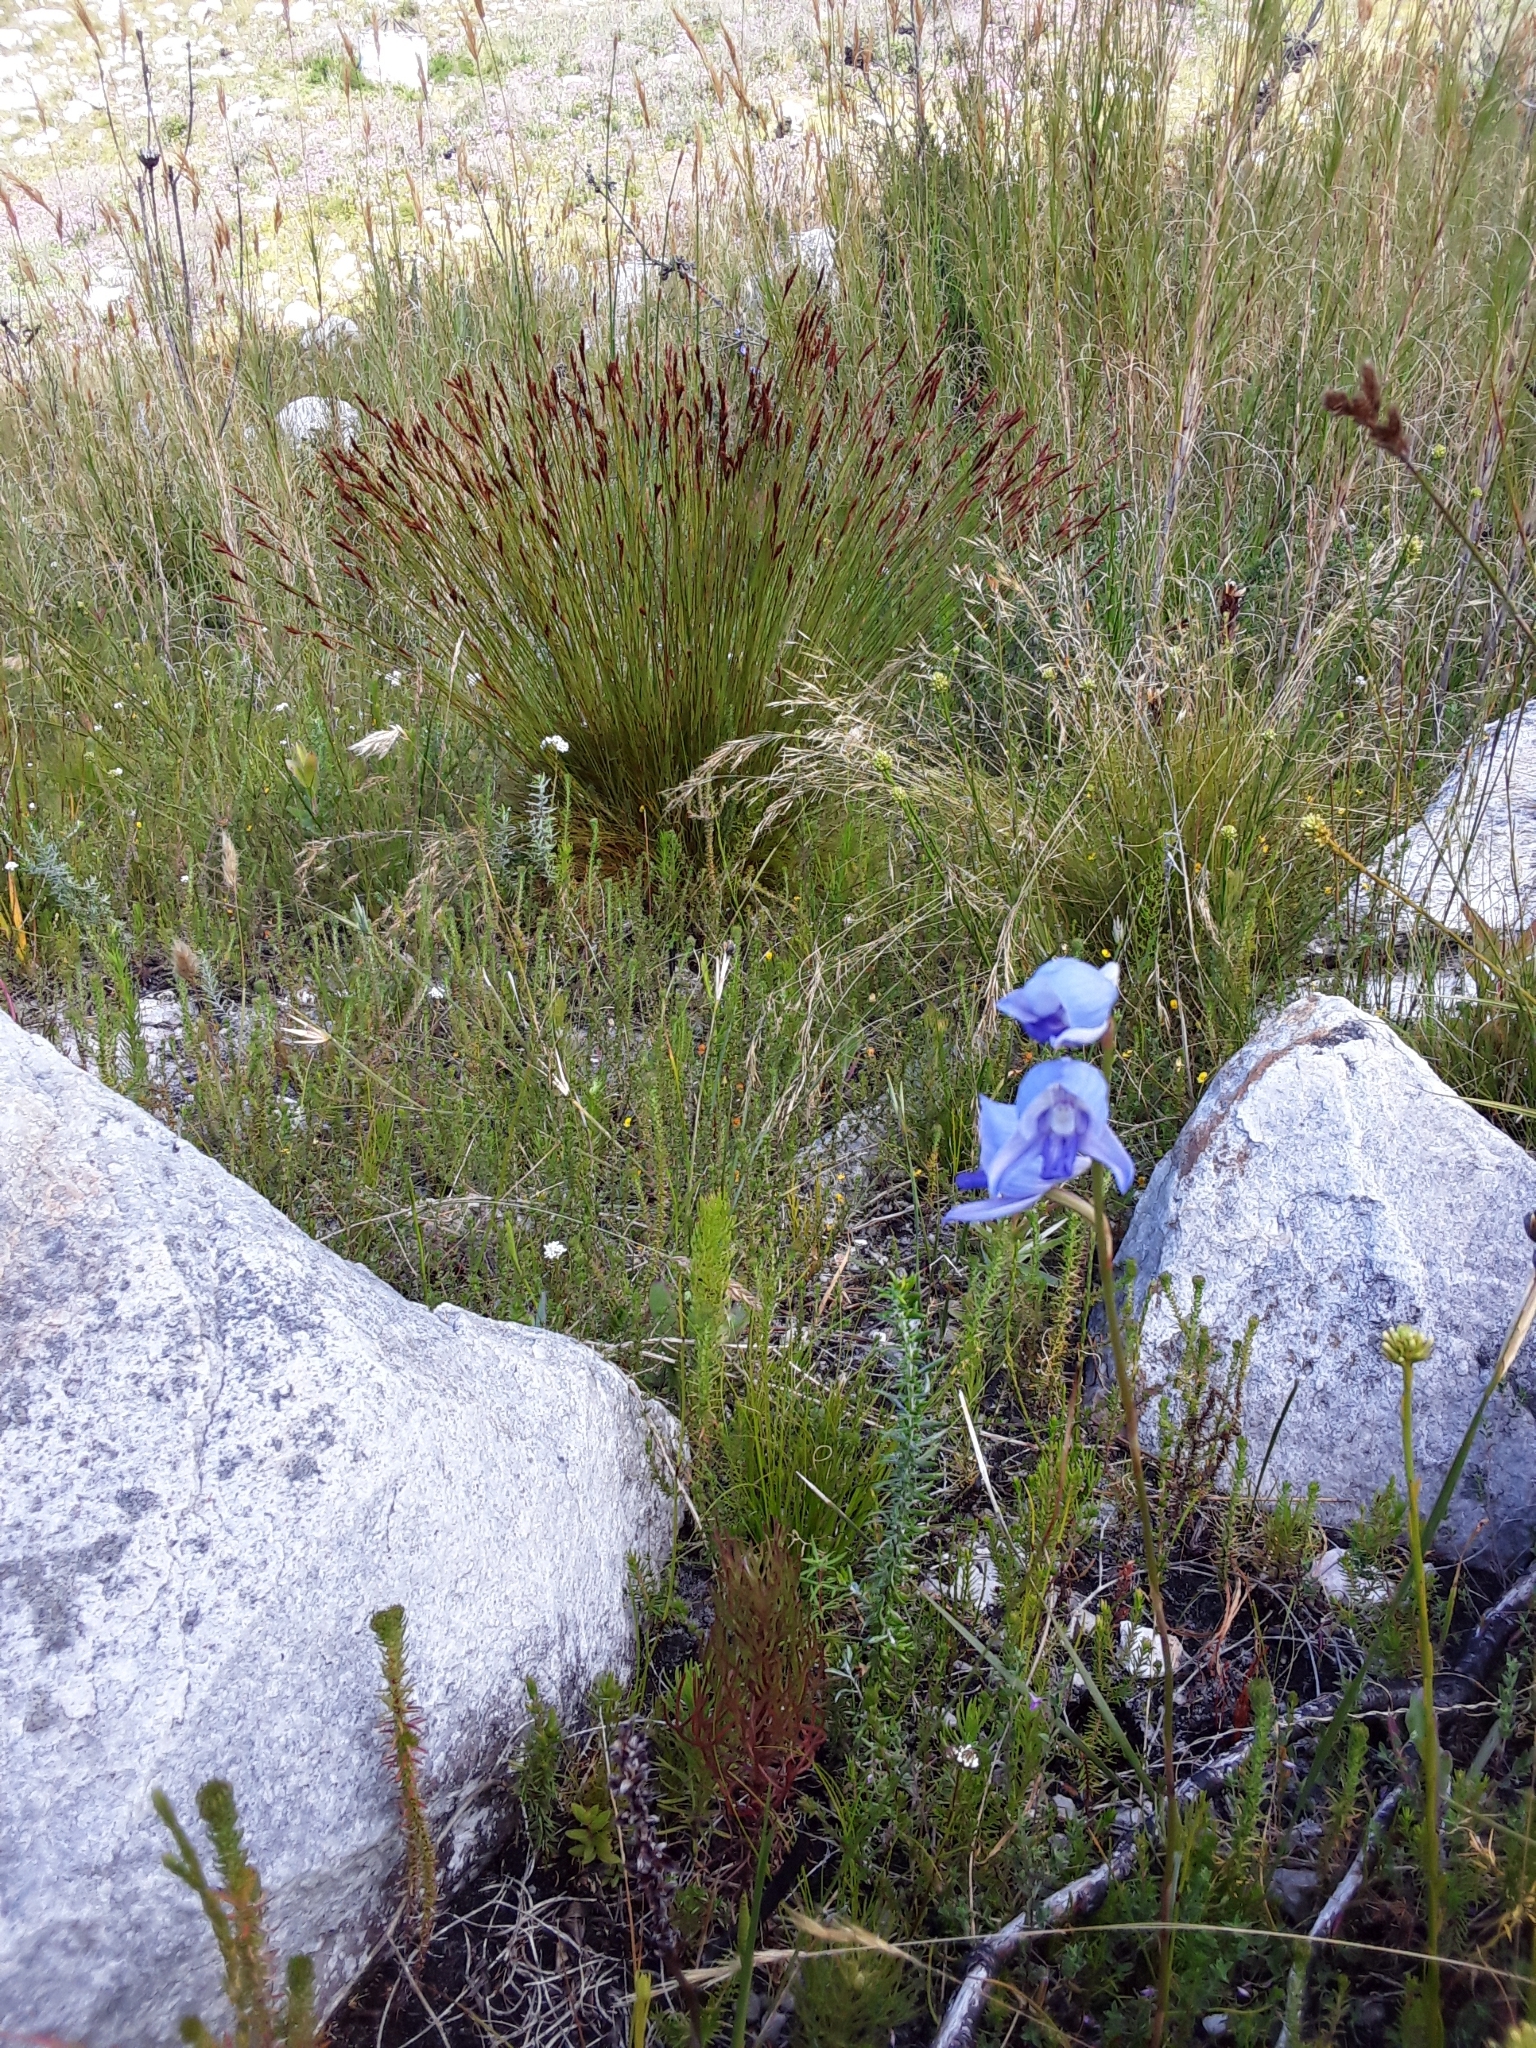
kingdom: Plantae
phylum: Tracheophyta
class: Liliopsida
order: Asparagales
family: Orchidaceae
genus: Disa
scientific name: Disa purpurascens
